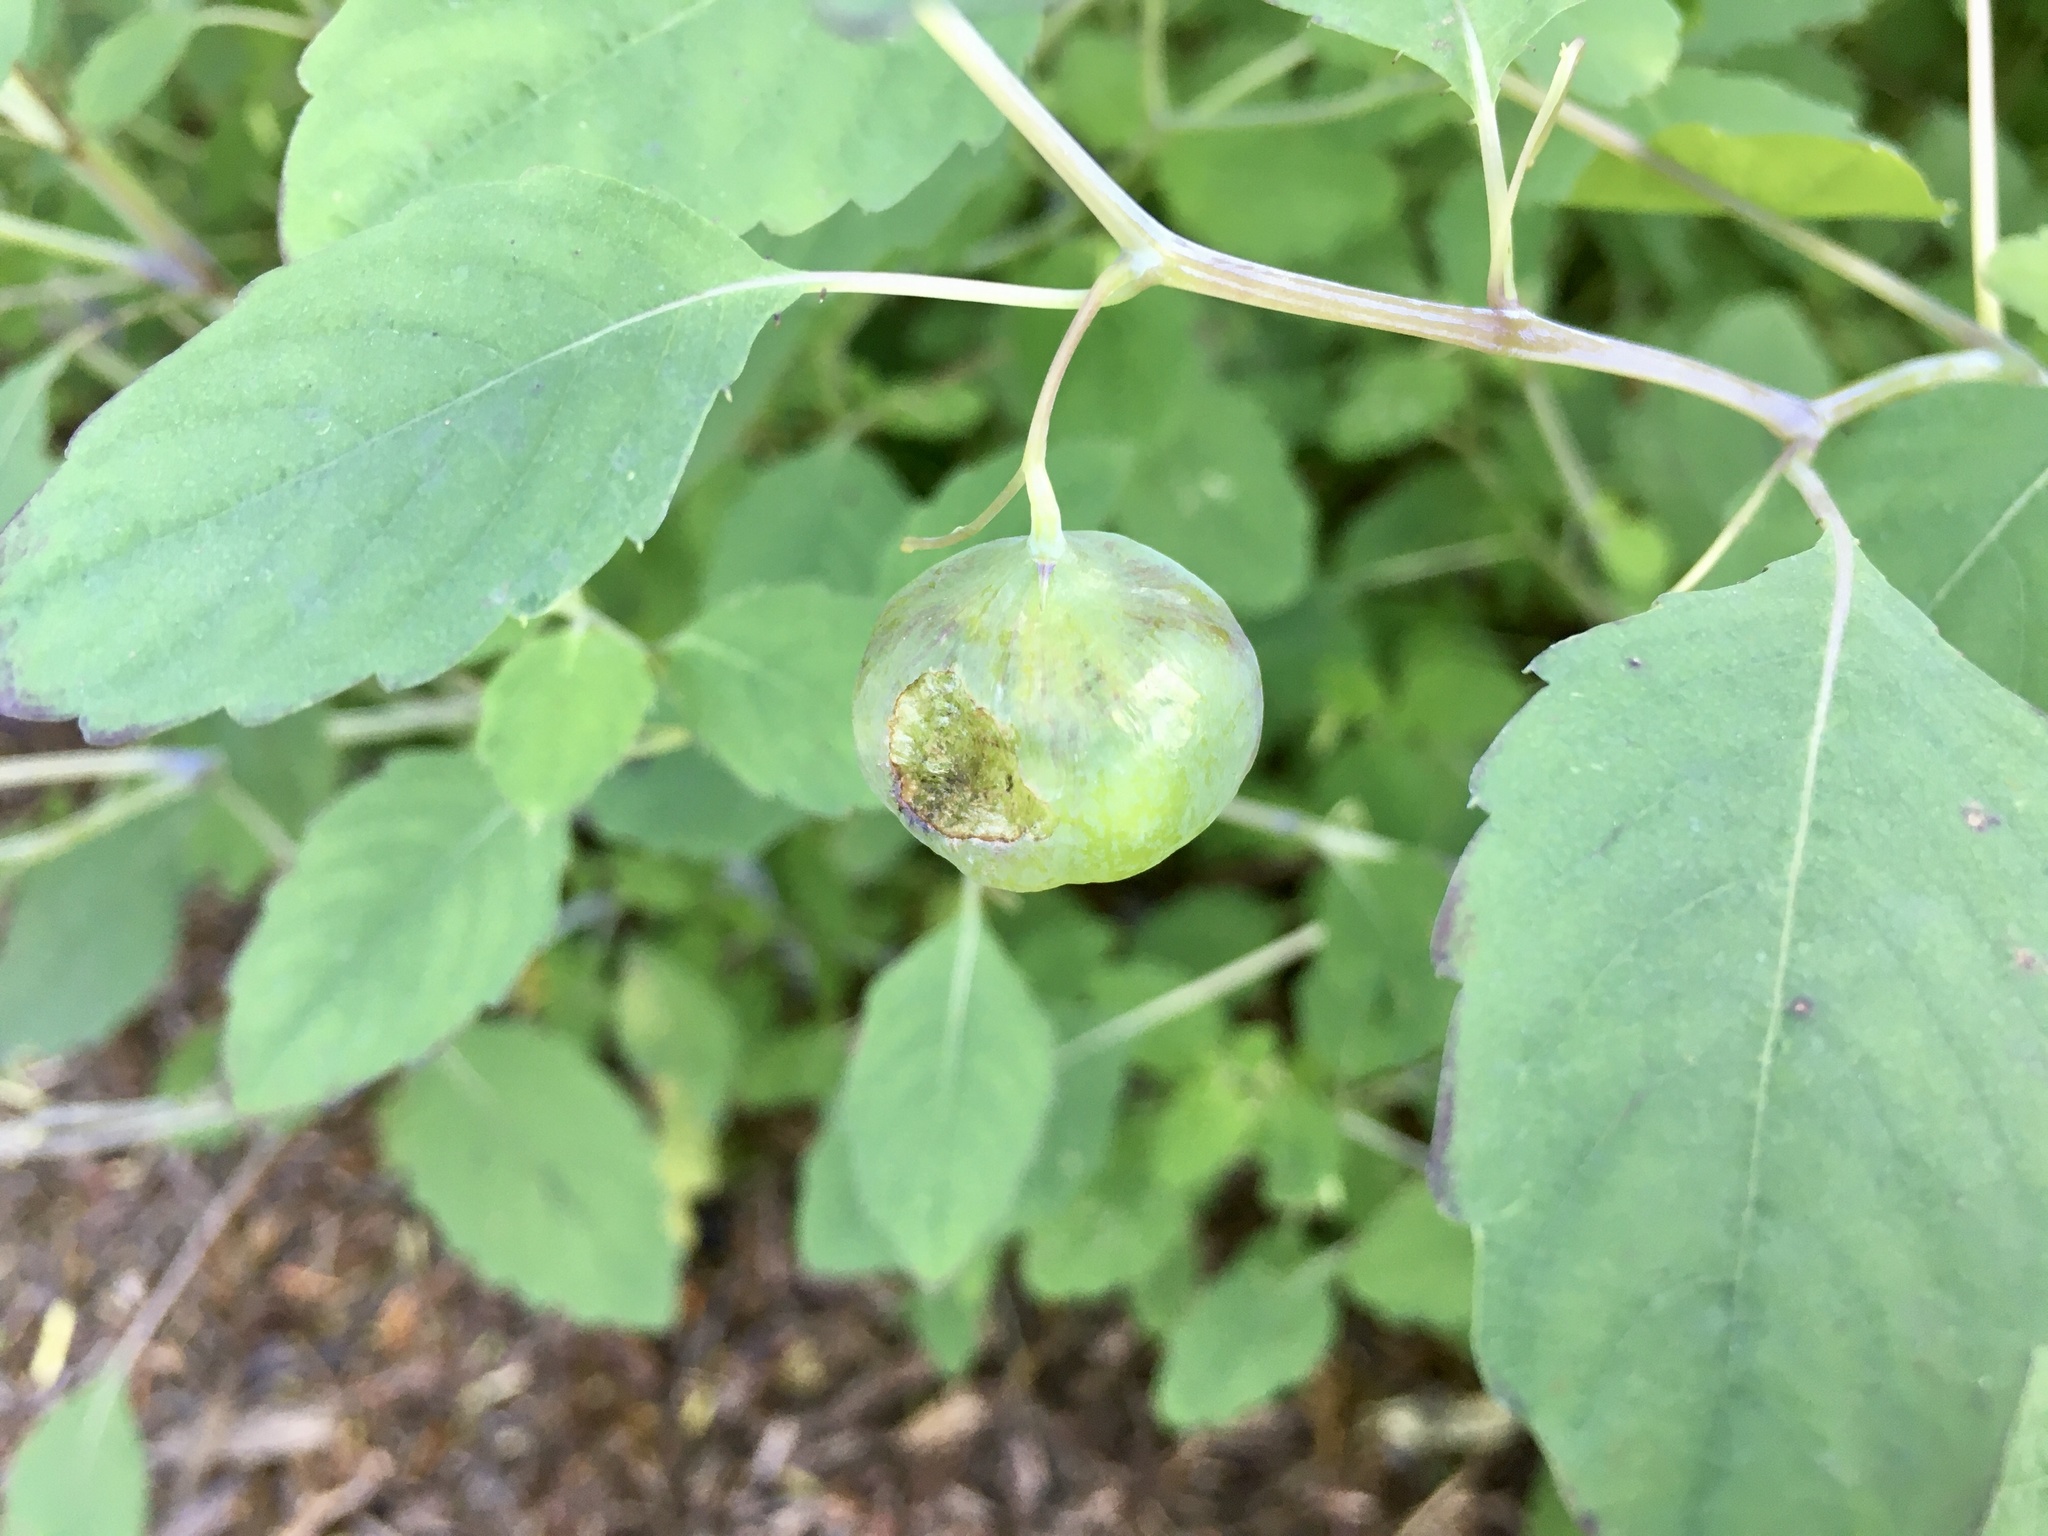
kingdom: Animalia
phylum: Arthropoda
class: Insecta
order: Diptera
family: Cecidomyiidae
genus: Schizomyia
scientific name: Schizomyia impatientis
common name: Jewelweed gall midge
